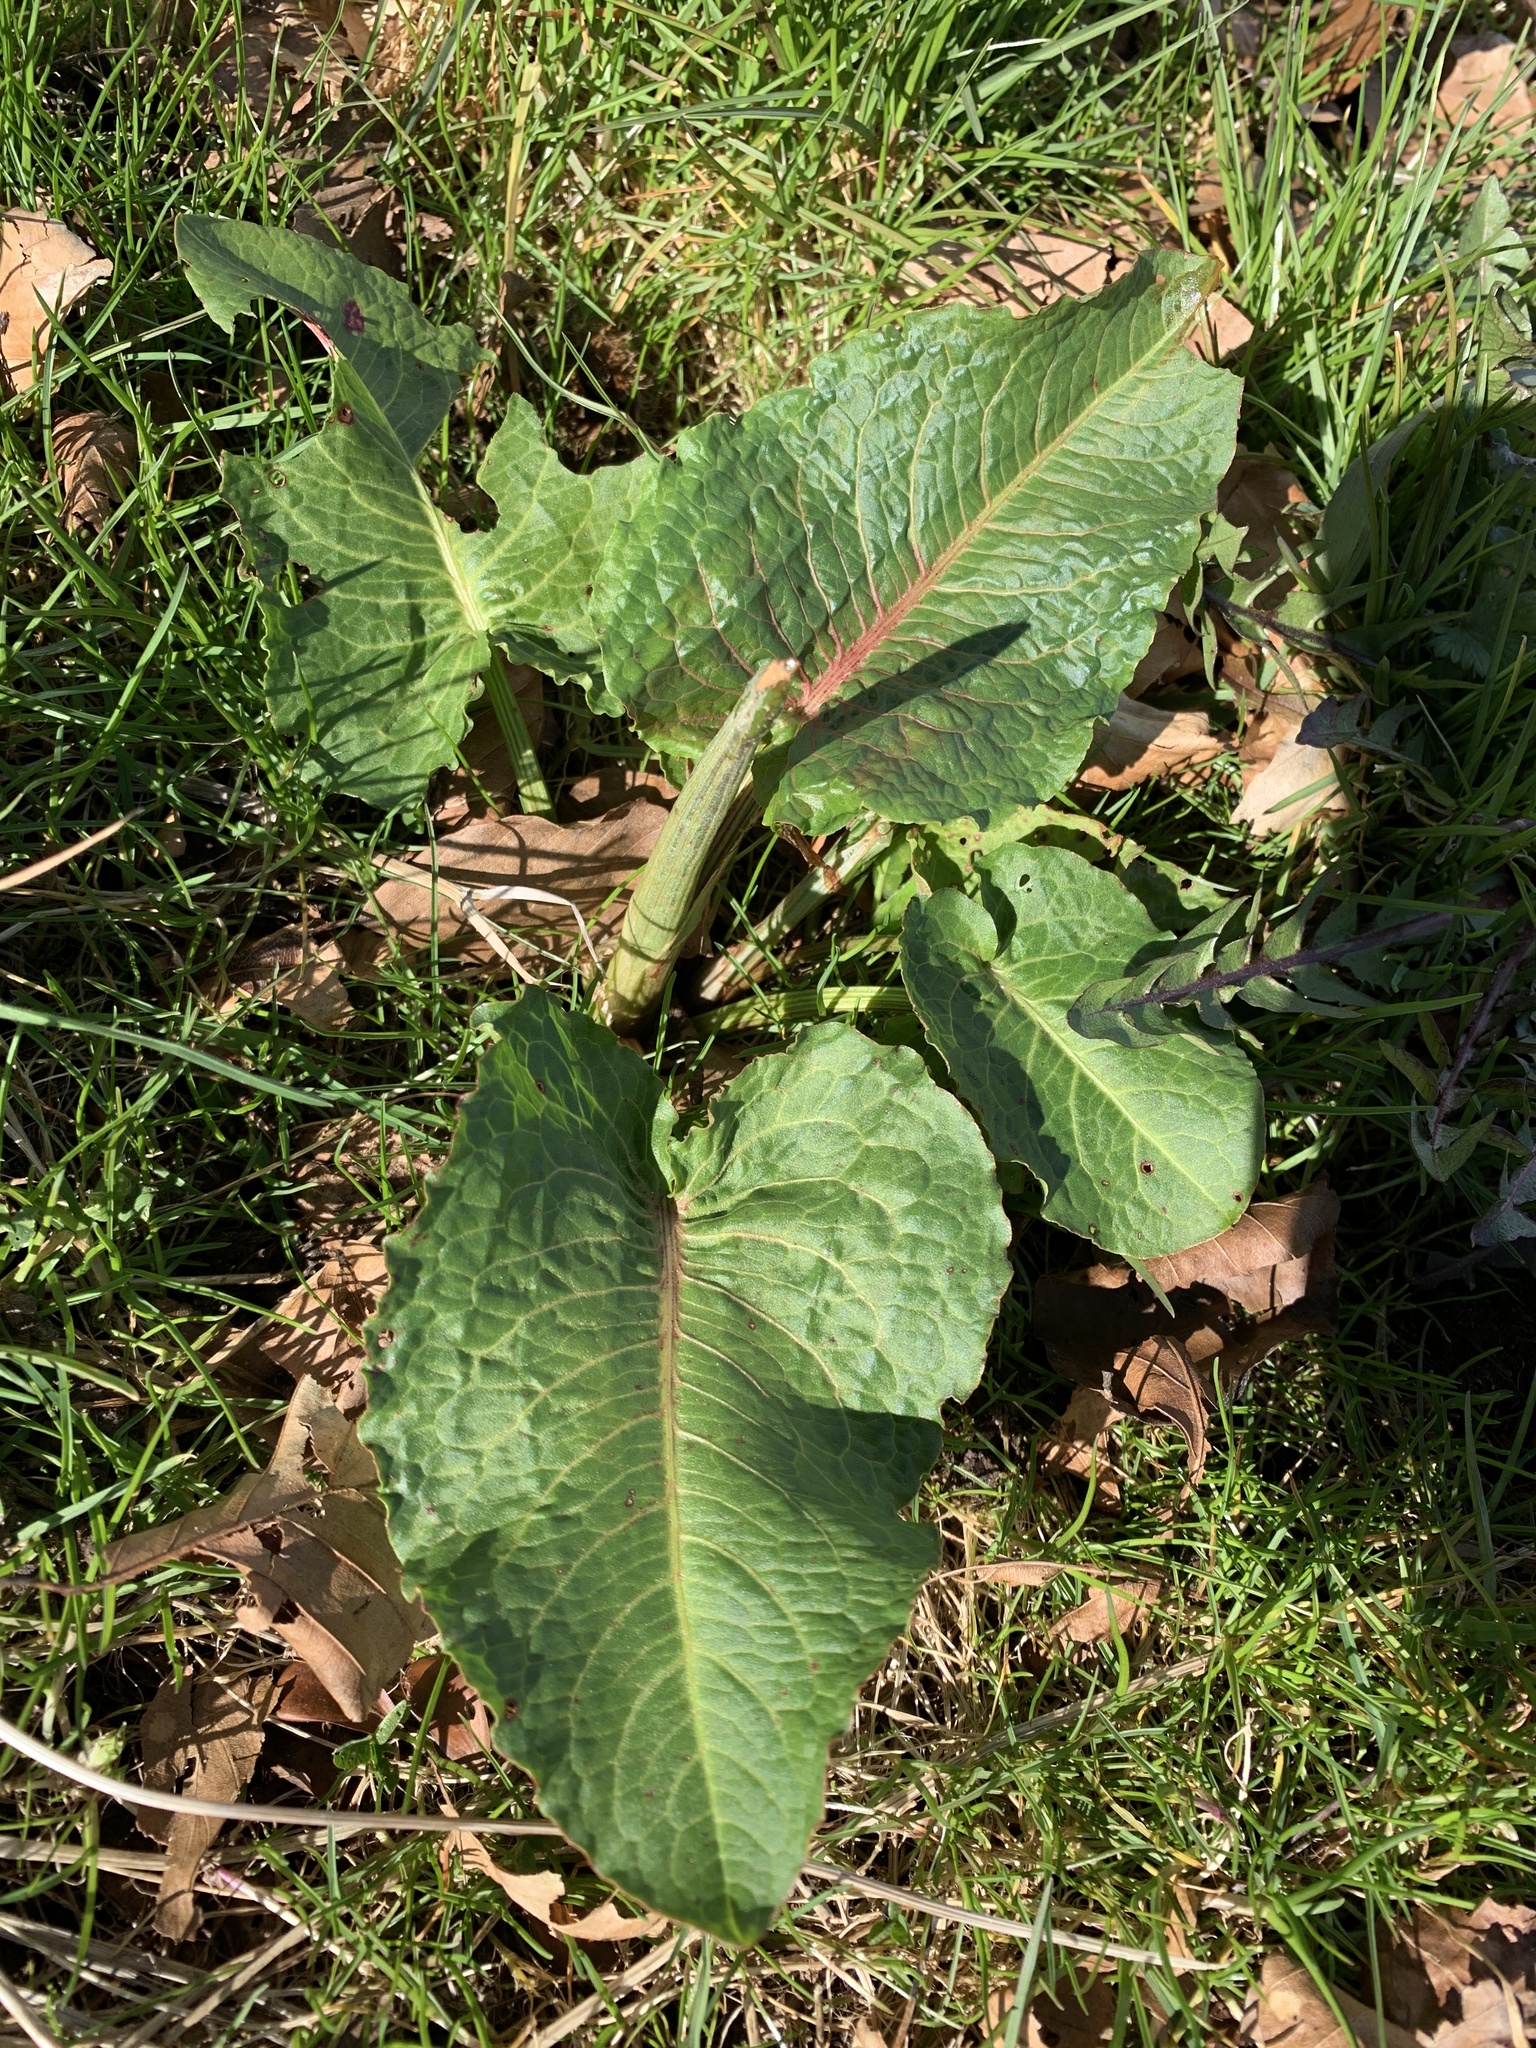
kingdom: Plantae
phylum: Tracheophyta
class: Magnoliopsida
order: Caryophyllales
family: Polygonaceae
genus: Rumex
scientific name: Rumex obtusifolius
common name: Bitter dock
